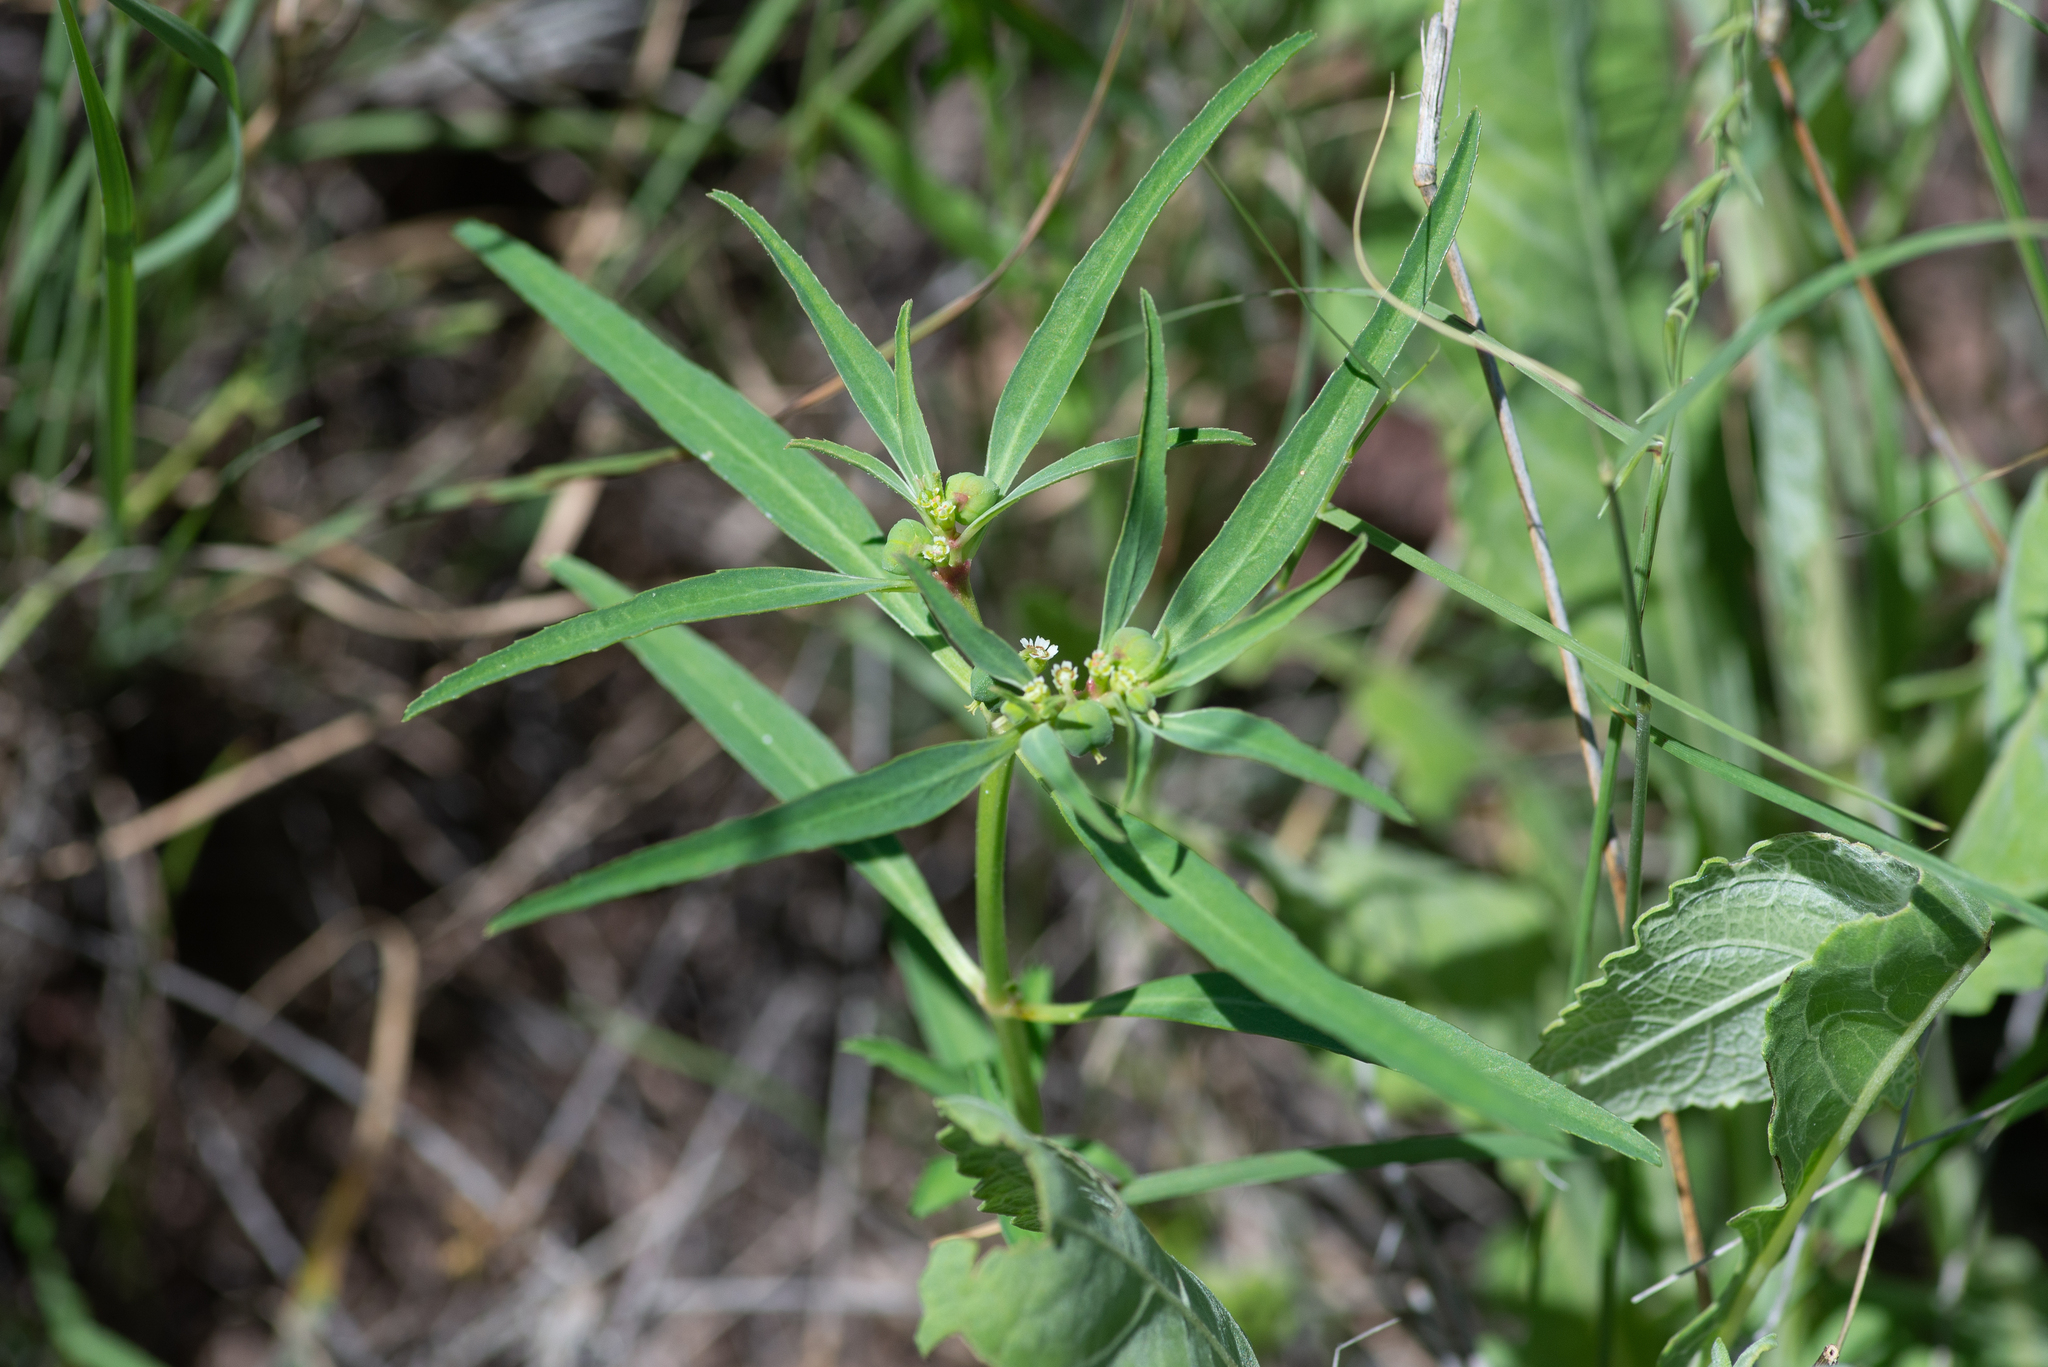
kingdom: Plantae
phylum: Tracheophyta
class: Magnoliopsida
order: Malpighiales
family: Euphorbiaceae
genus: Euphorbia
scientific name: Euphorbia exstipulata
